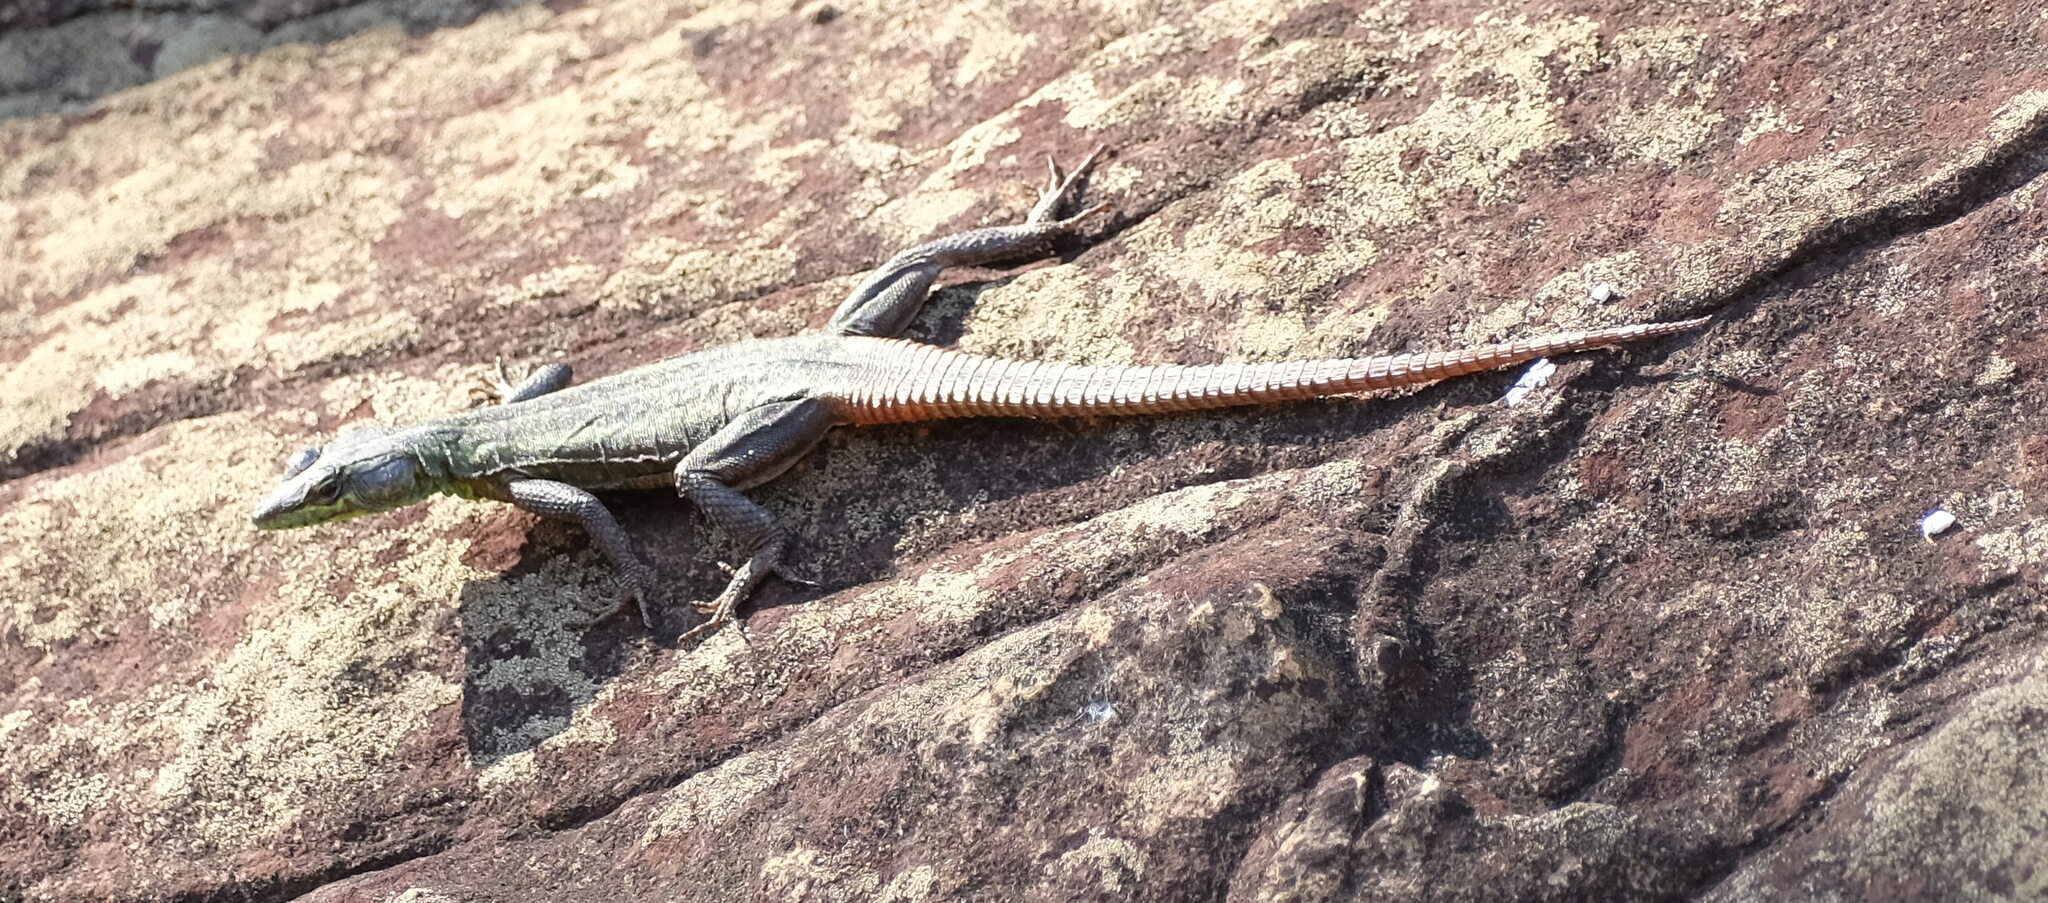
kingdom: Animalia
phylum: Chordata
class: Squamata
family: Cordylidae
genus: Platysaurus
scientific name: Platysaurus intermedius
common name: Common flat lizard
